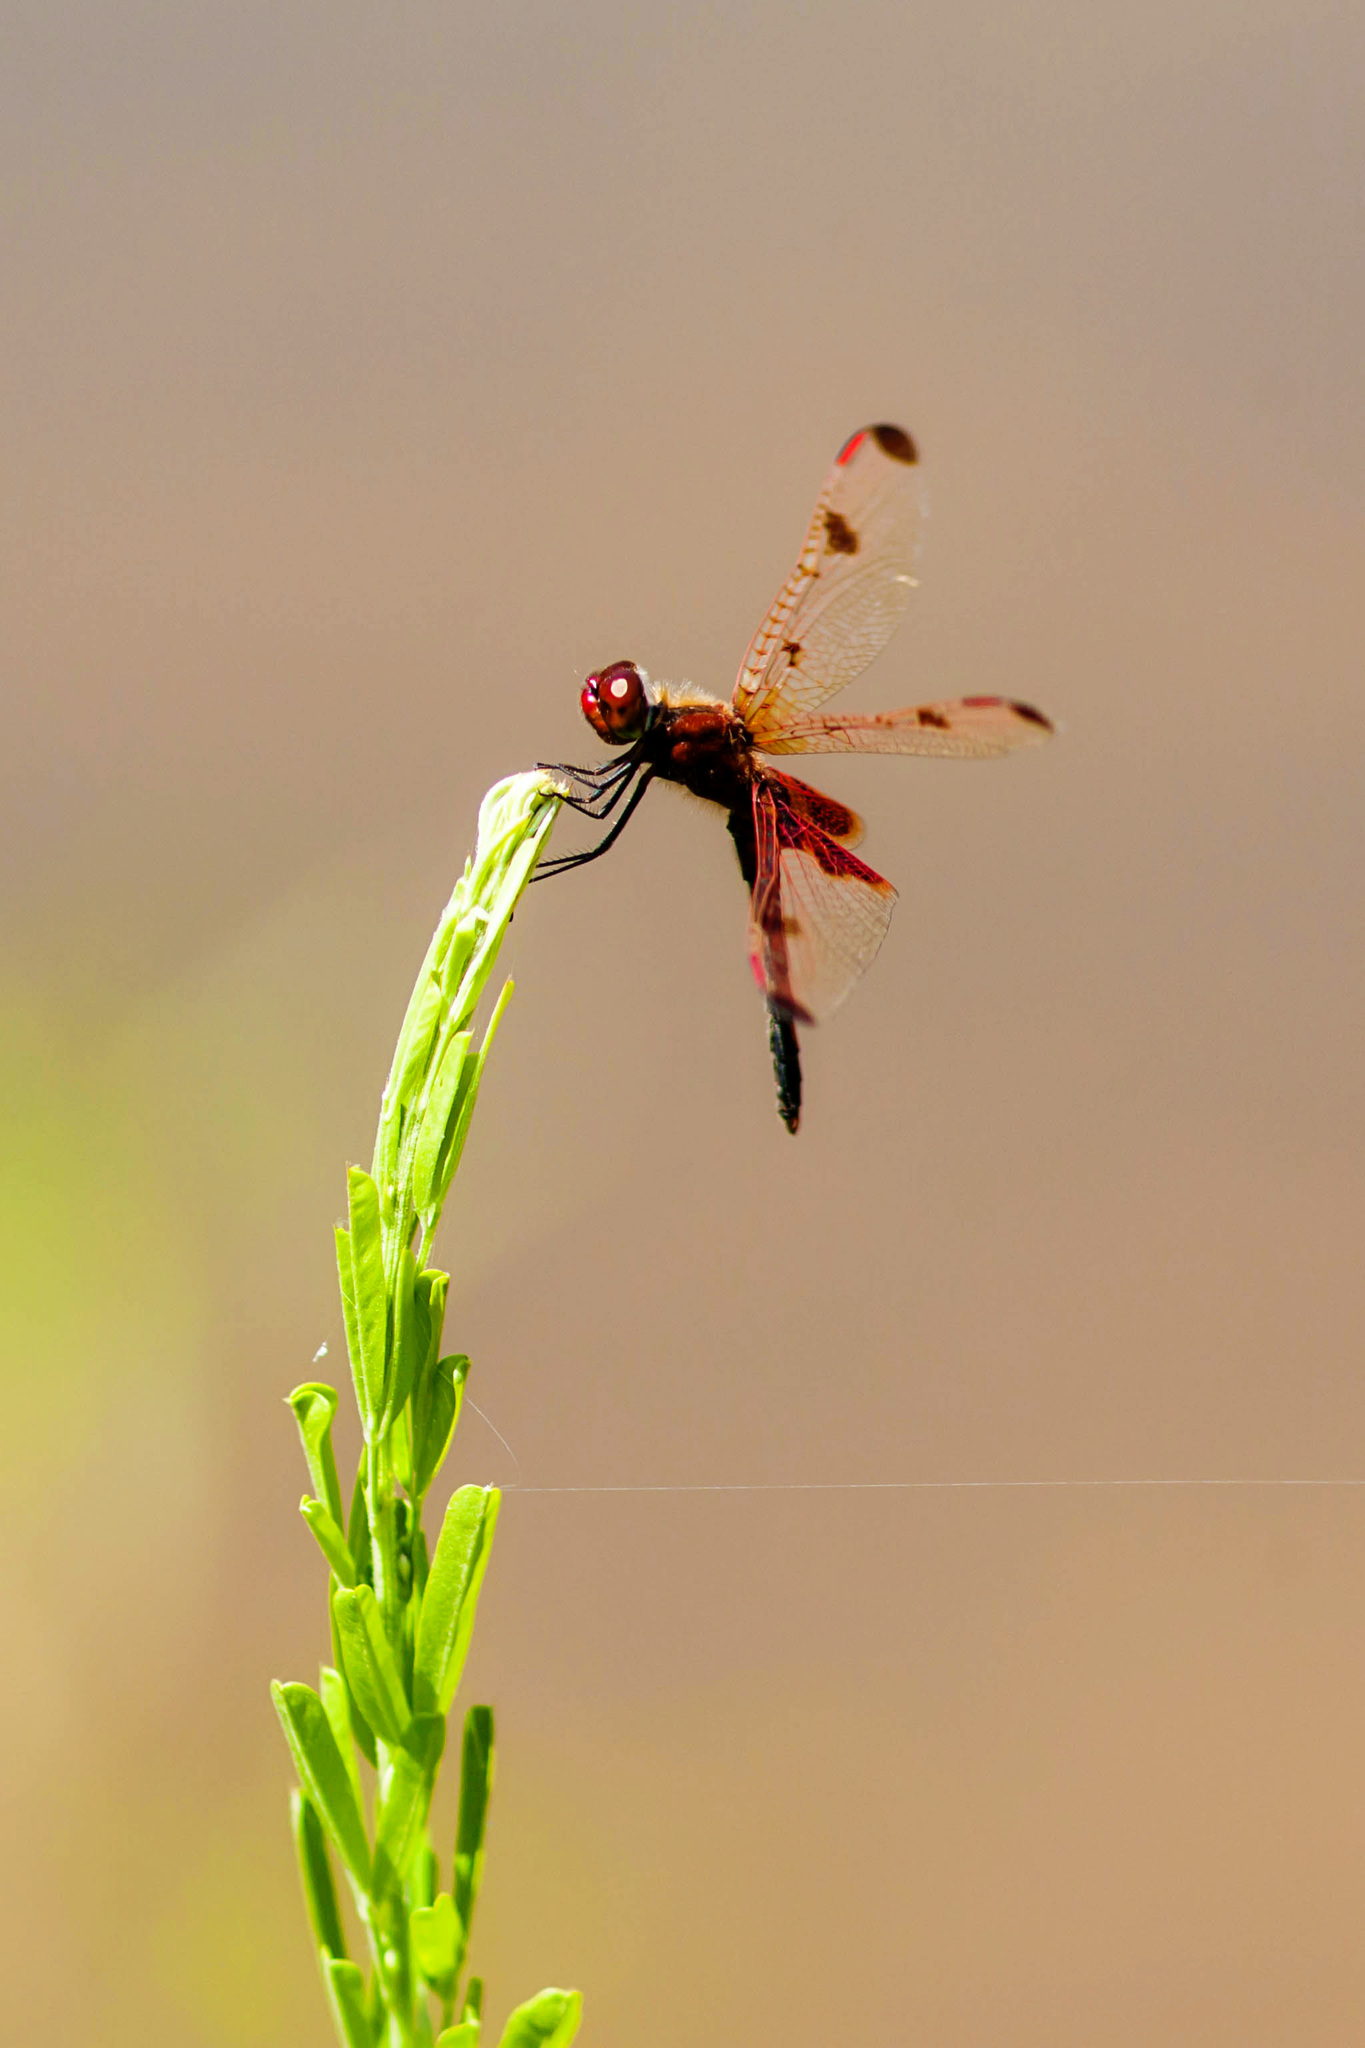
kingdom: Animalia
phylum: Arthropoda
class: Insecta
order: Odonata
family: Libellulidae
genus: Celithemis
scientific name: Celithemis elisa
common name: Calico pennant
